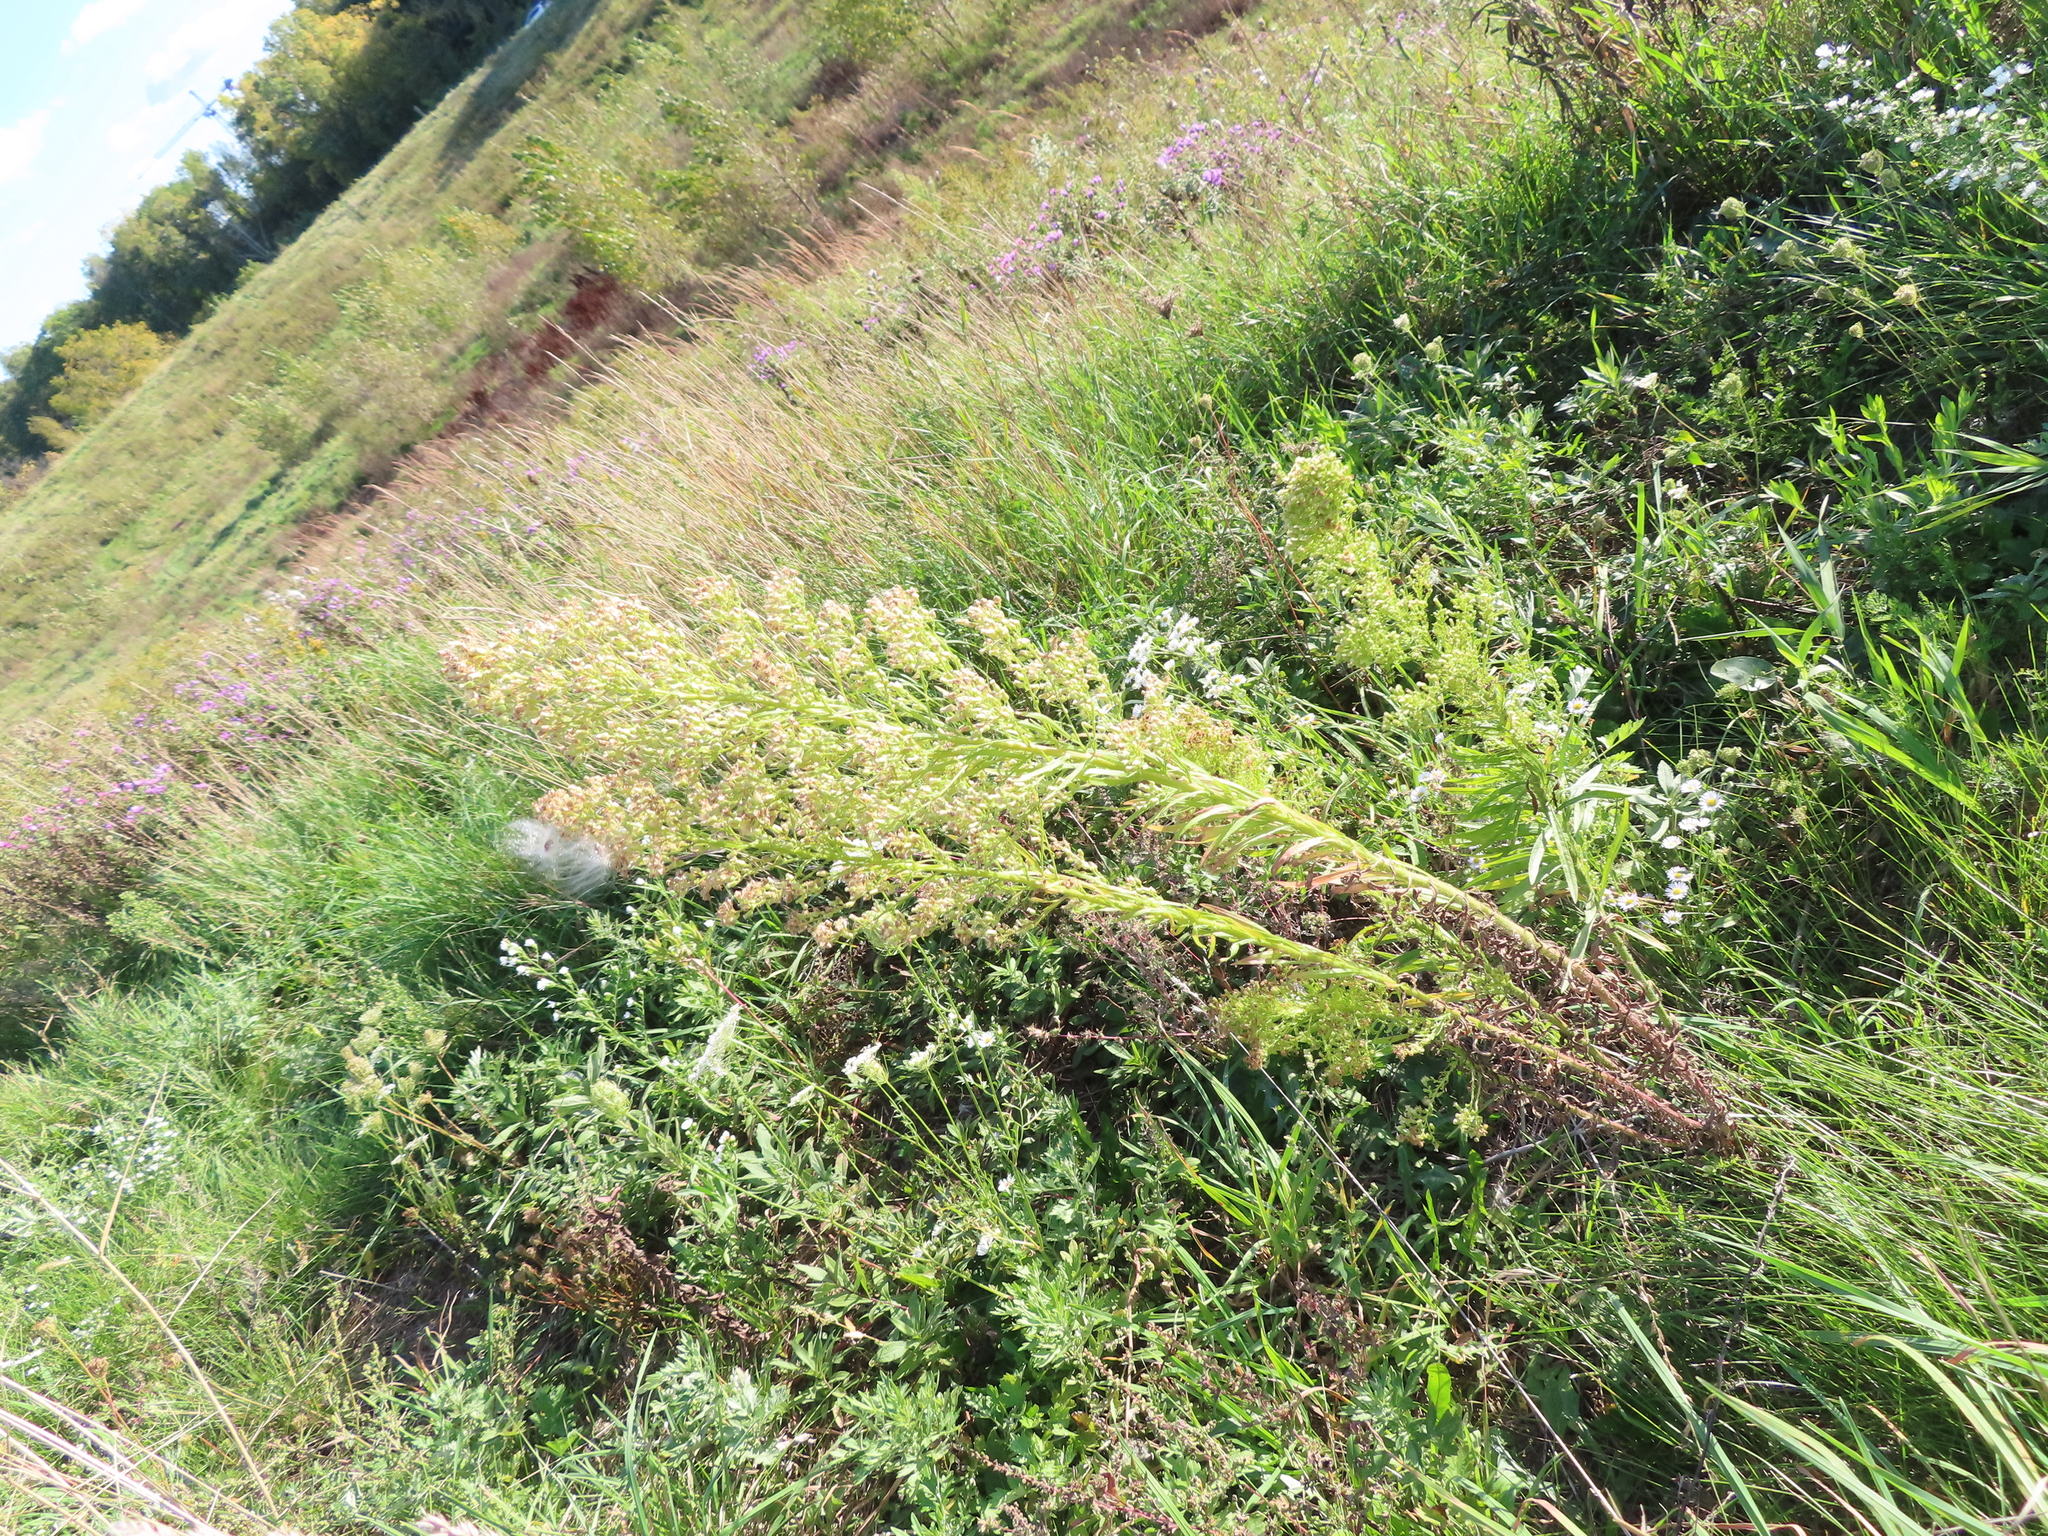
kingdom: Plantae
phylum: Tracheophyta
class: Magnoliopsida
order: Asterales
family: Asteraceae
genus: Erigeron
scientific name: Erigeron canadensis
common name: Canadian fleabane
